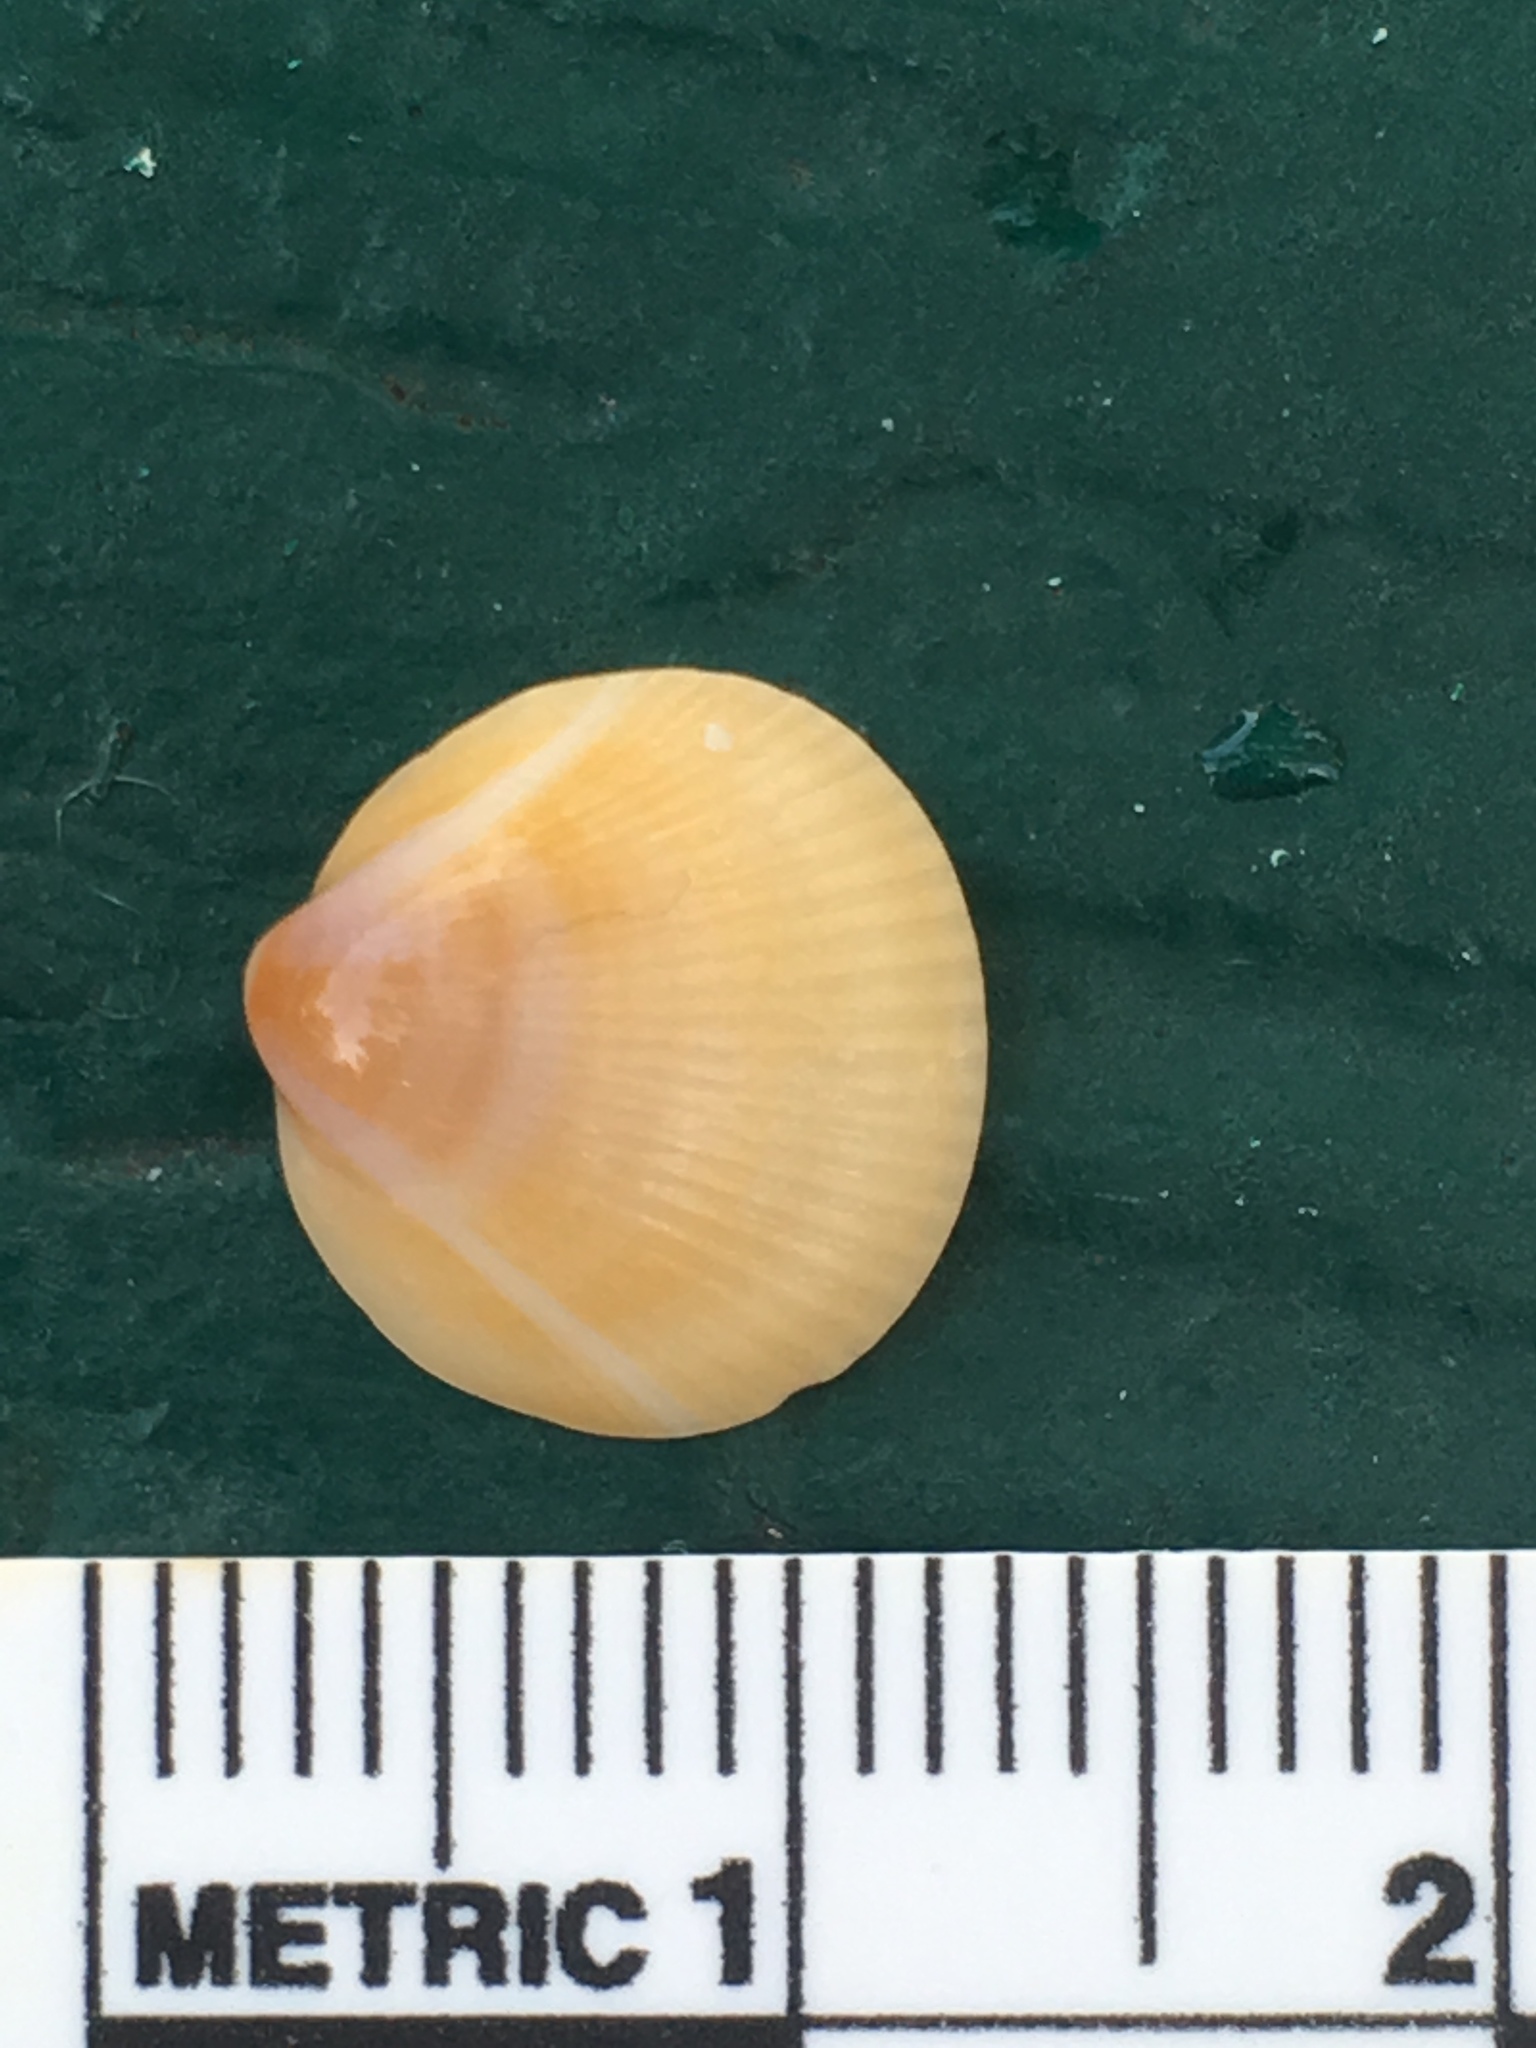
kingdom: Animalia
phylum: Mollusca
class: Bivalvia
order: Arcida
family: Glycymerididae
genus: Glycymeris
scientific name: Glycymeris spectralis
